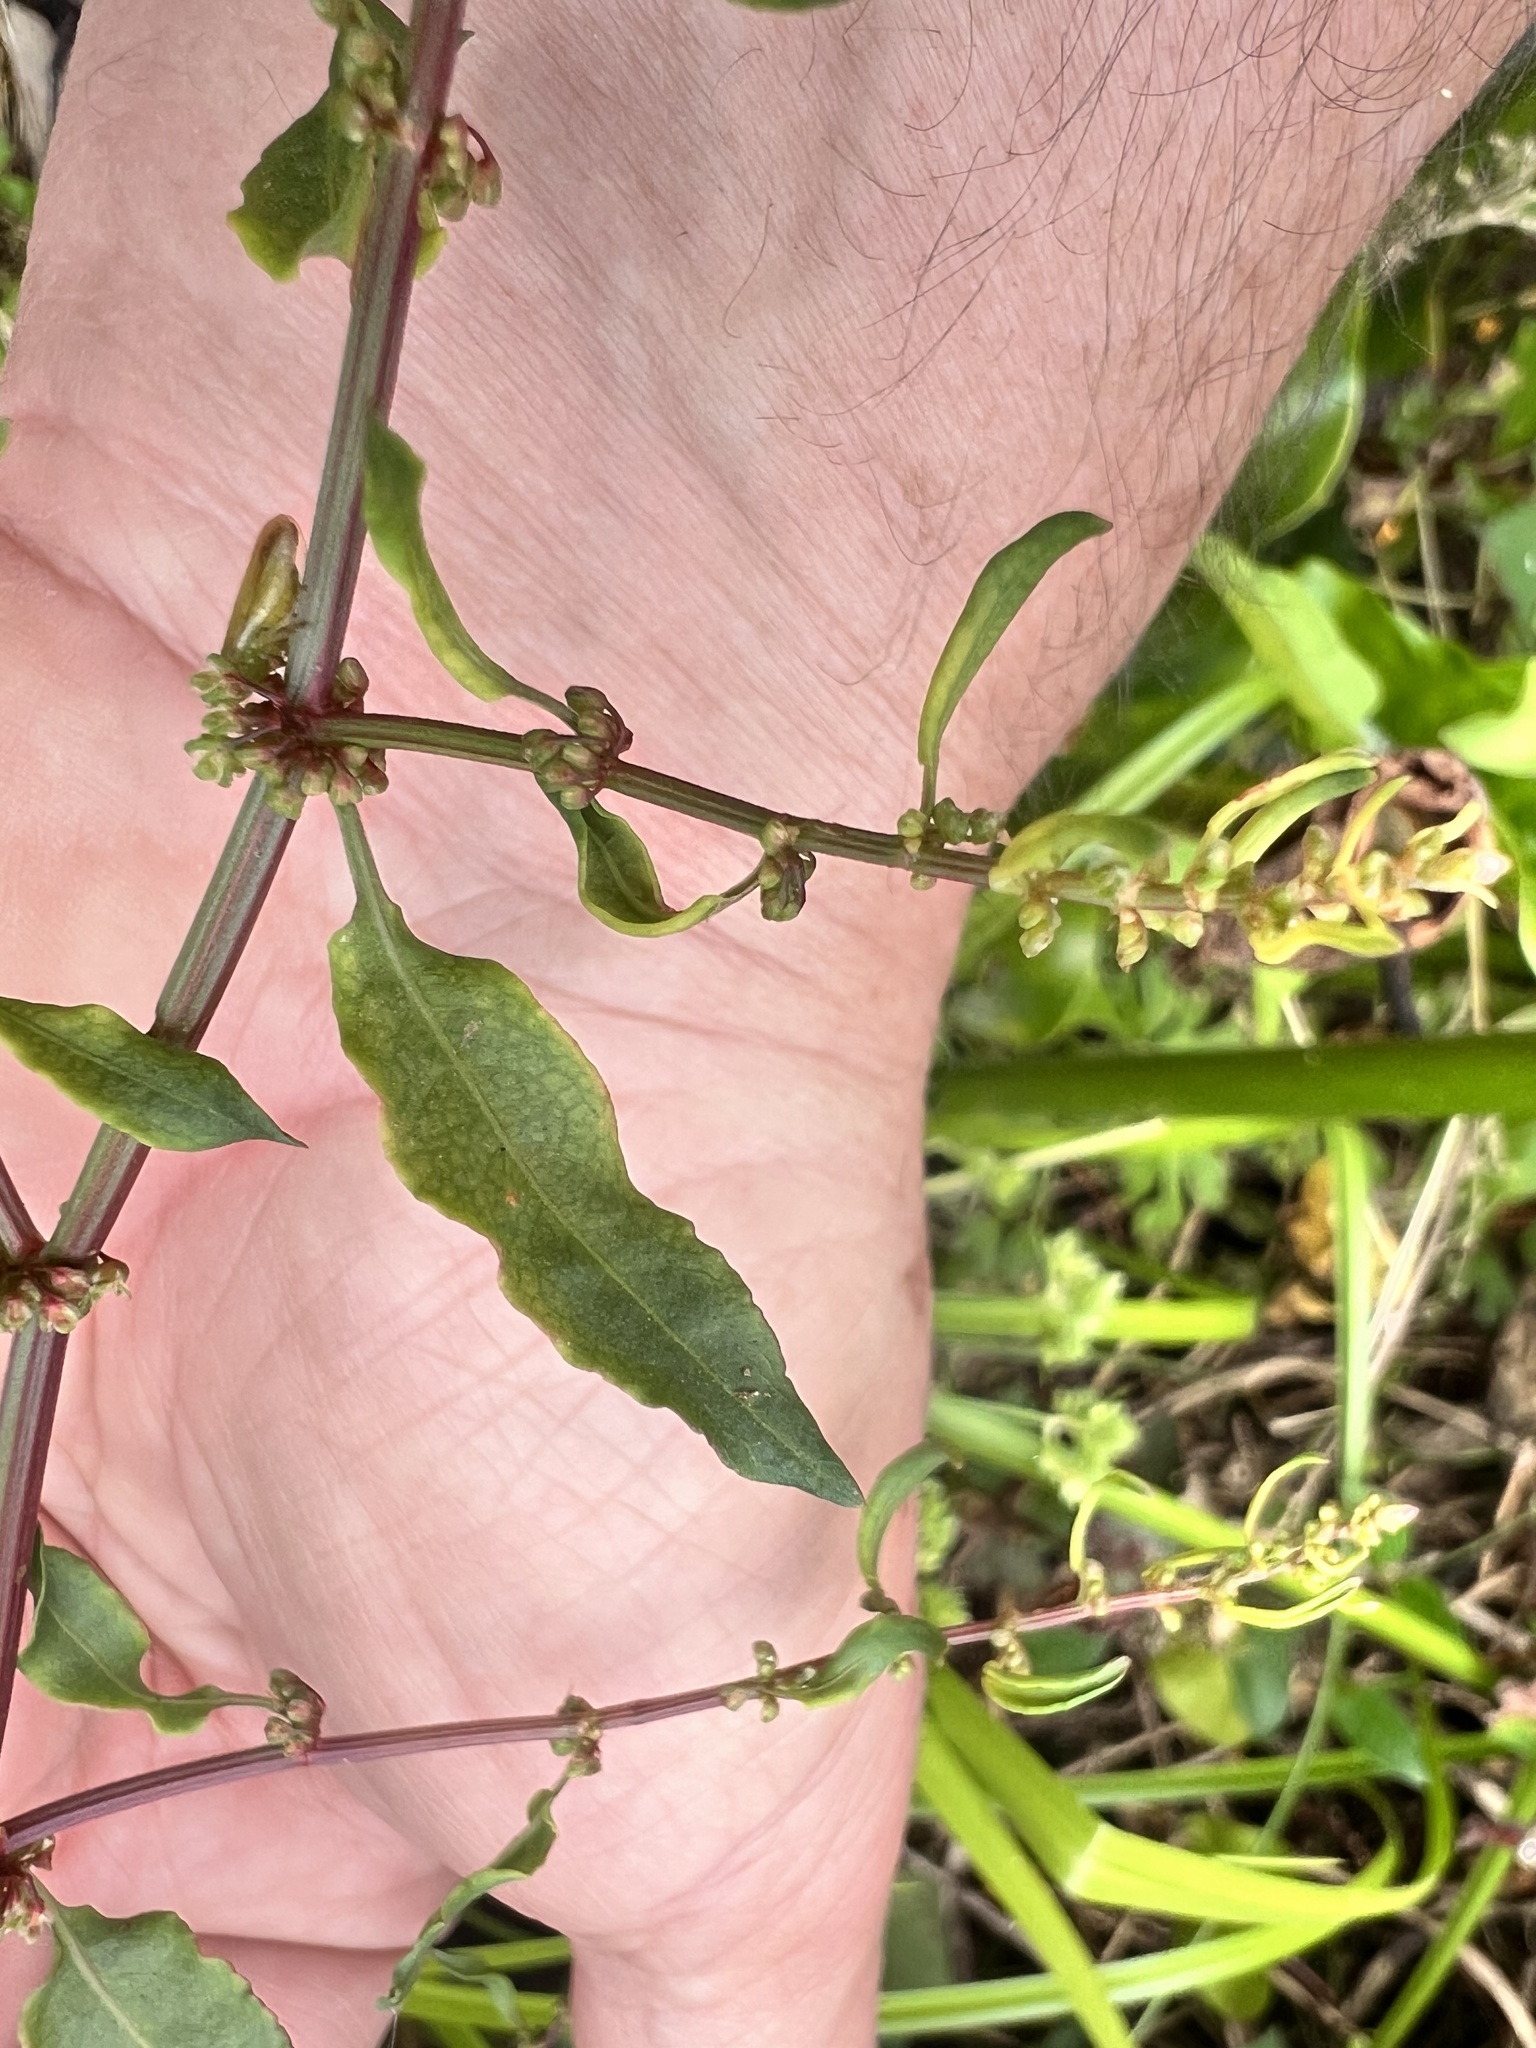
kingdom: Plantae
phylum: Tracheophyta
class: Magnoliopsida
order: Caryophyllales
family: Polygonaceae
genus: Rumex
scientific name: Rumex conglomeratus
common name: Clustered dock
